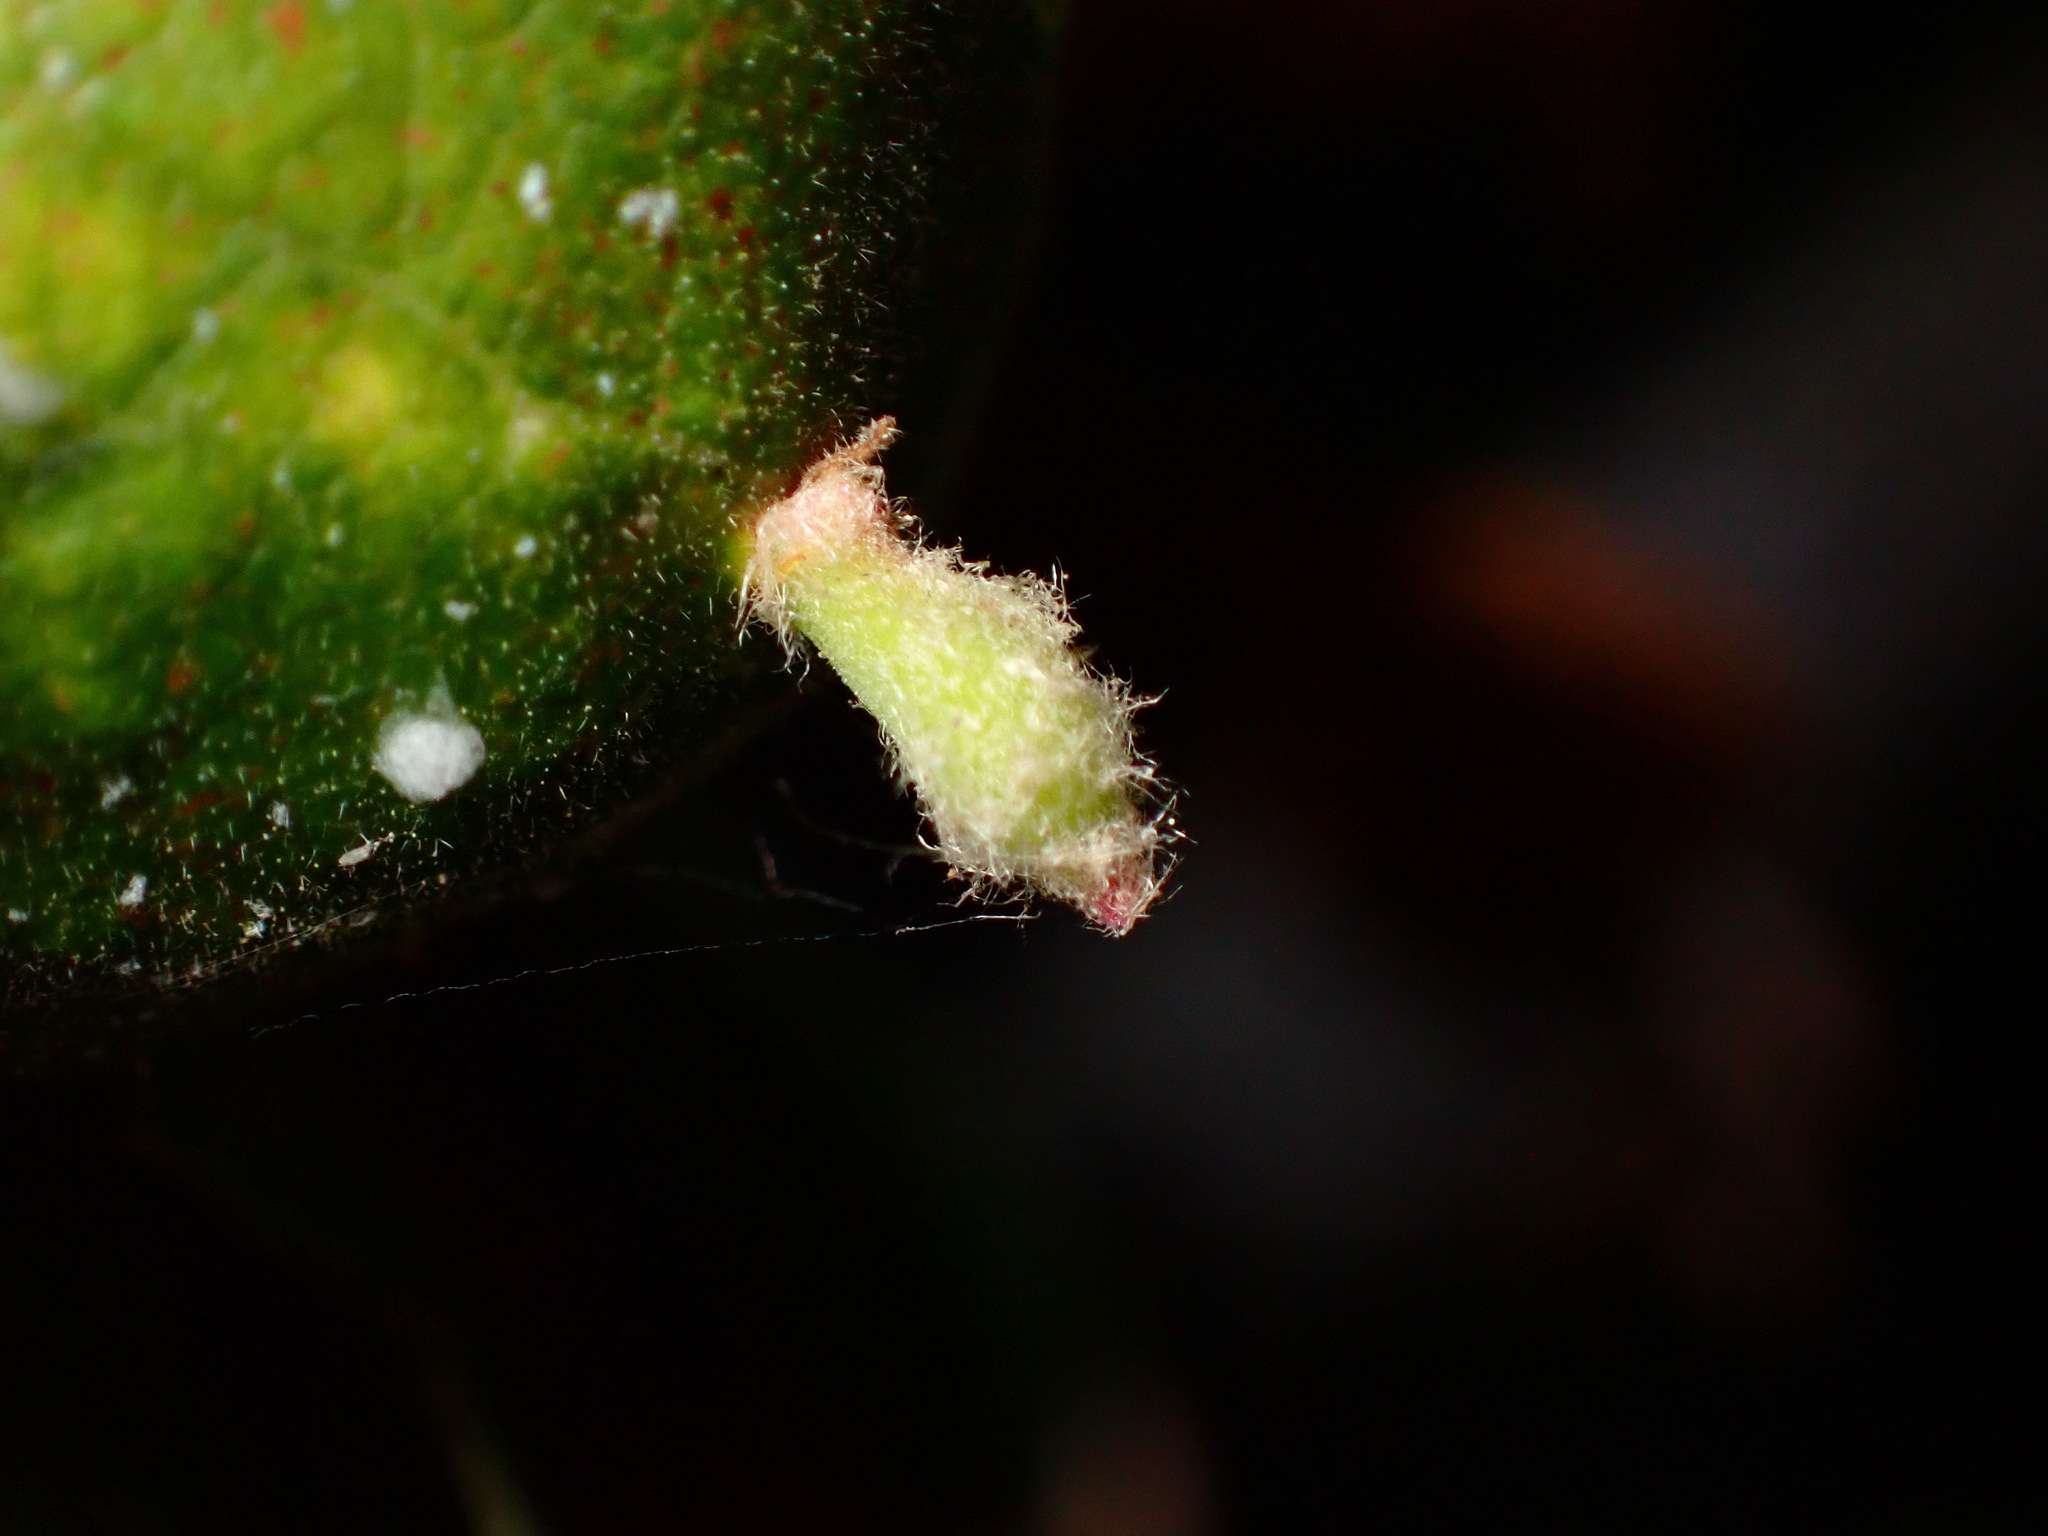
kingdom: Animalia
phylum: Arthropoda
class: Insecta
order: Hymenoptera
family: Cynipidae
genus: Atrusca
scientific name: Atrusca
